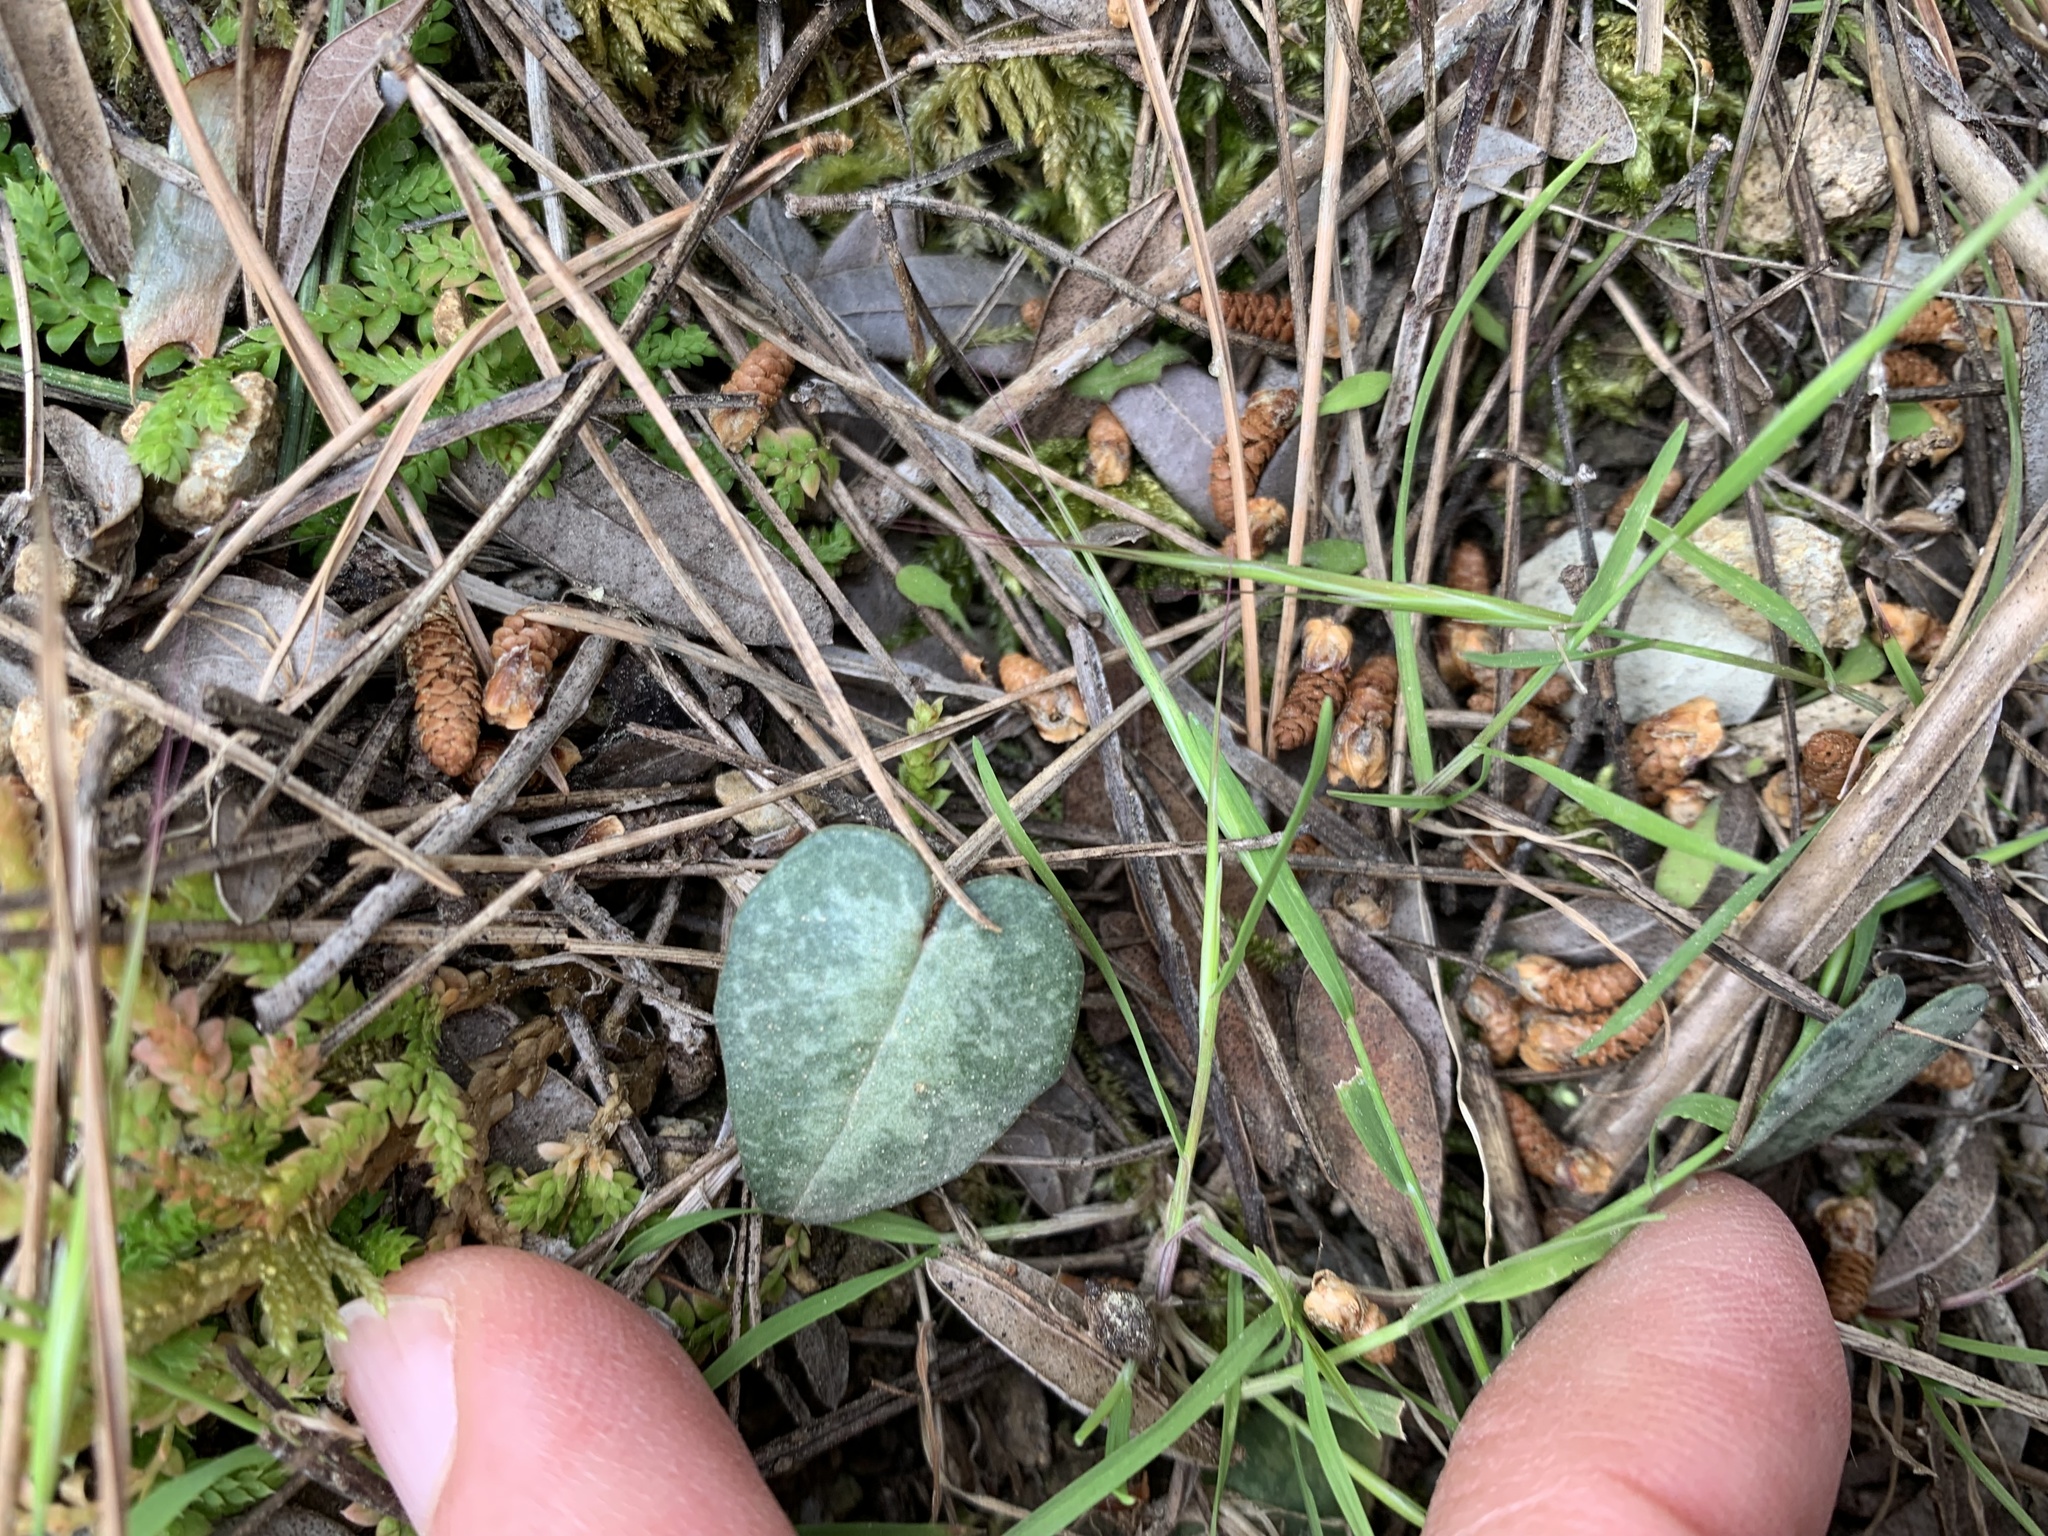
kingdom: Plantae
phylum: Tracheophyta
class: Magnoliopsida
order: Ericales
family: Primulaceae
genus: Cyclamen
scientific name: Cyclamen balearicum
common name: Majorca cyclamen
